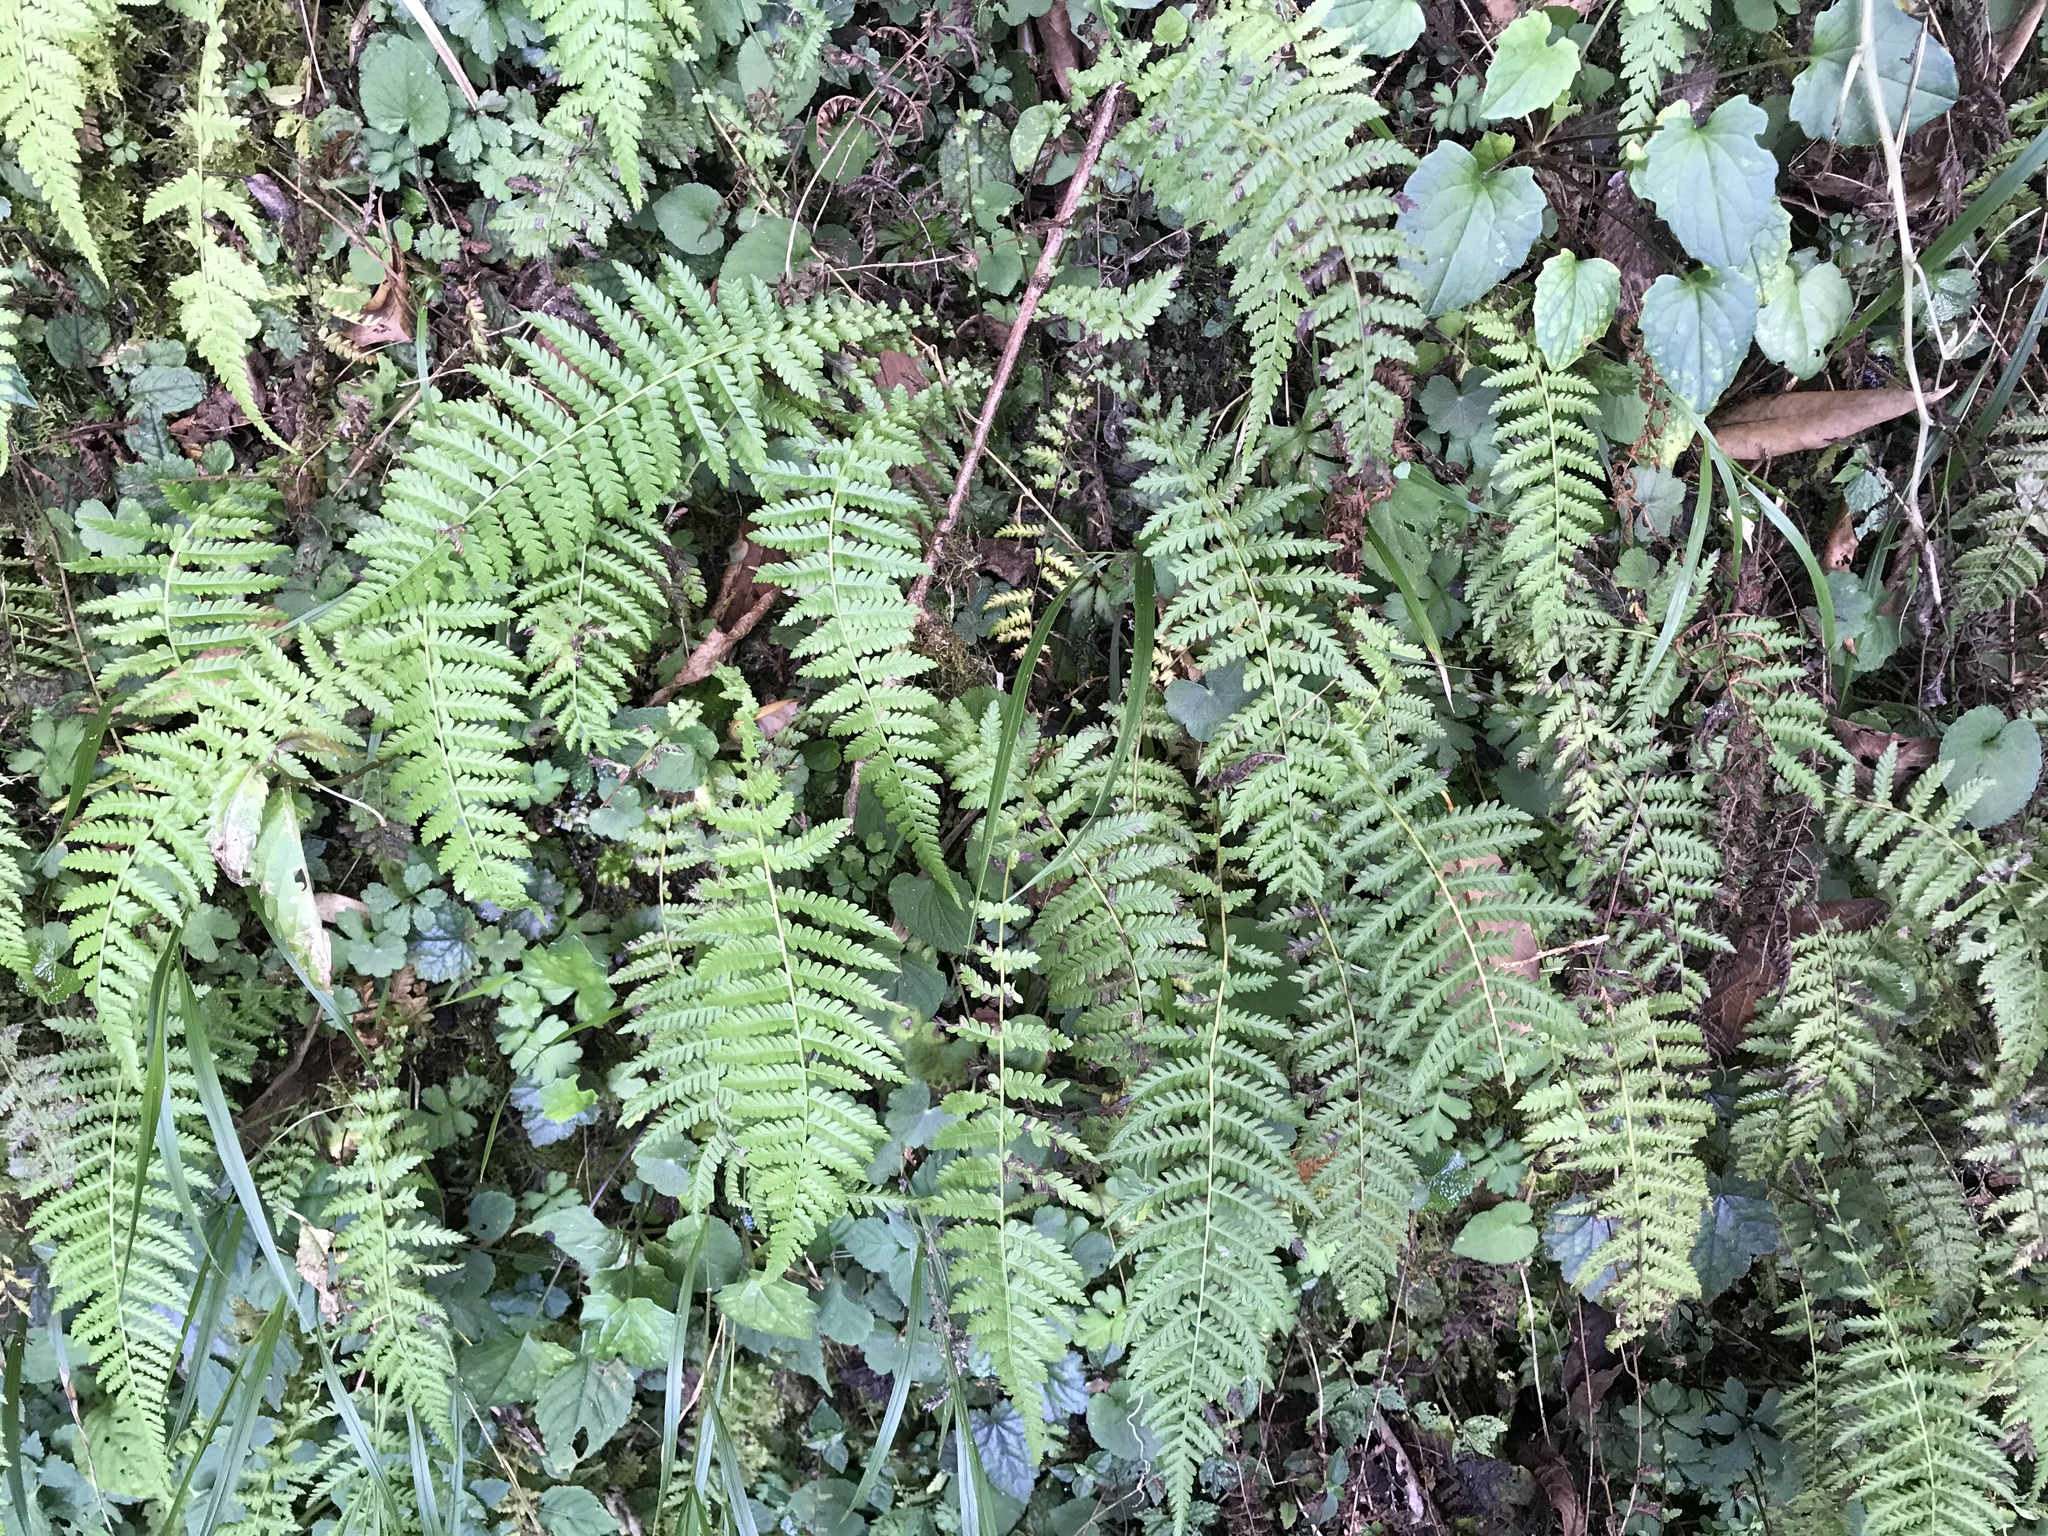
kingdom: Plantae
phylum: Tracheophyta
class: Polypodiopsida
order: Polypodiales
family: Thelypteridaceae
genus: Amauropelta
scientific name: Amauropelta beddomei
